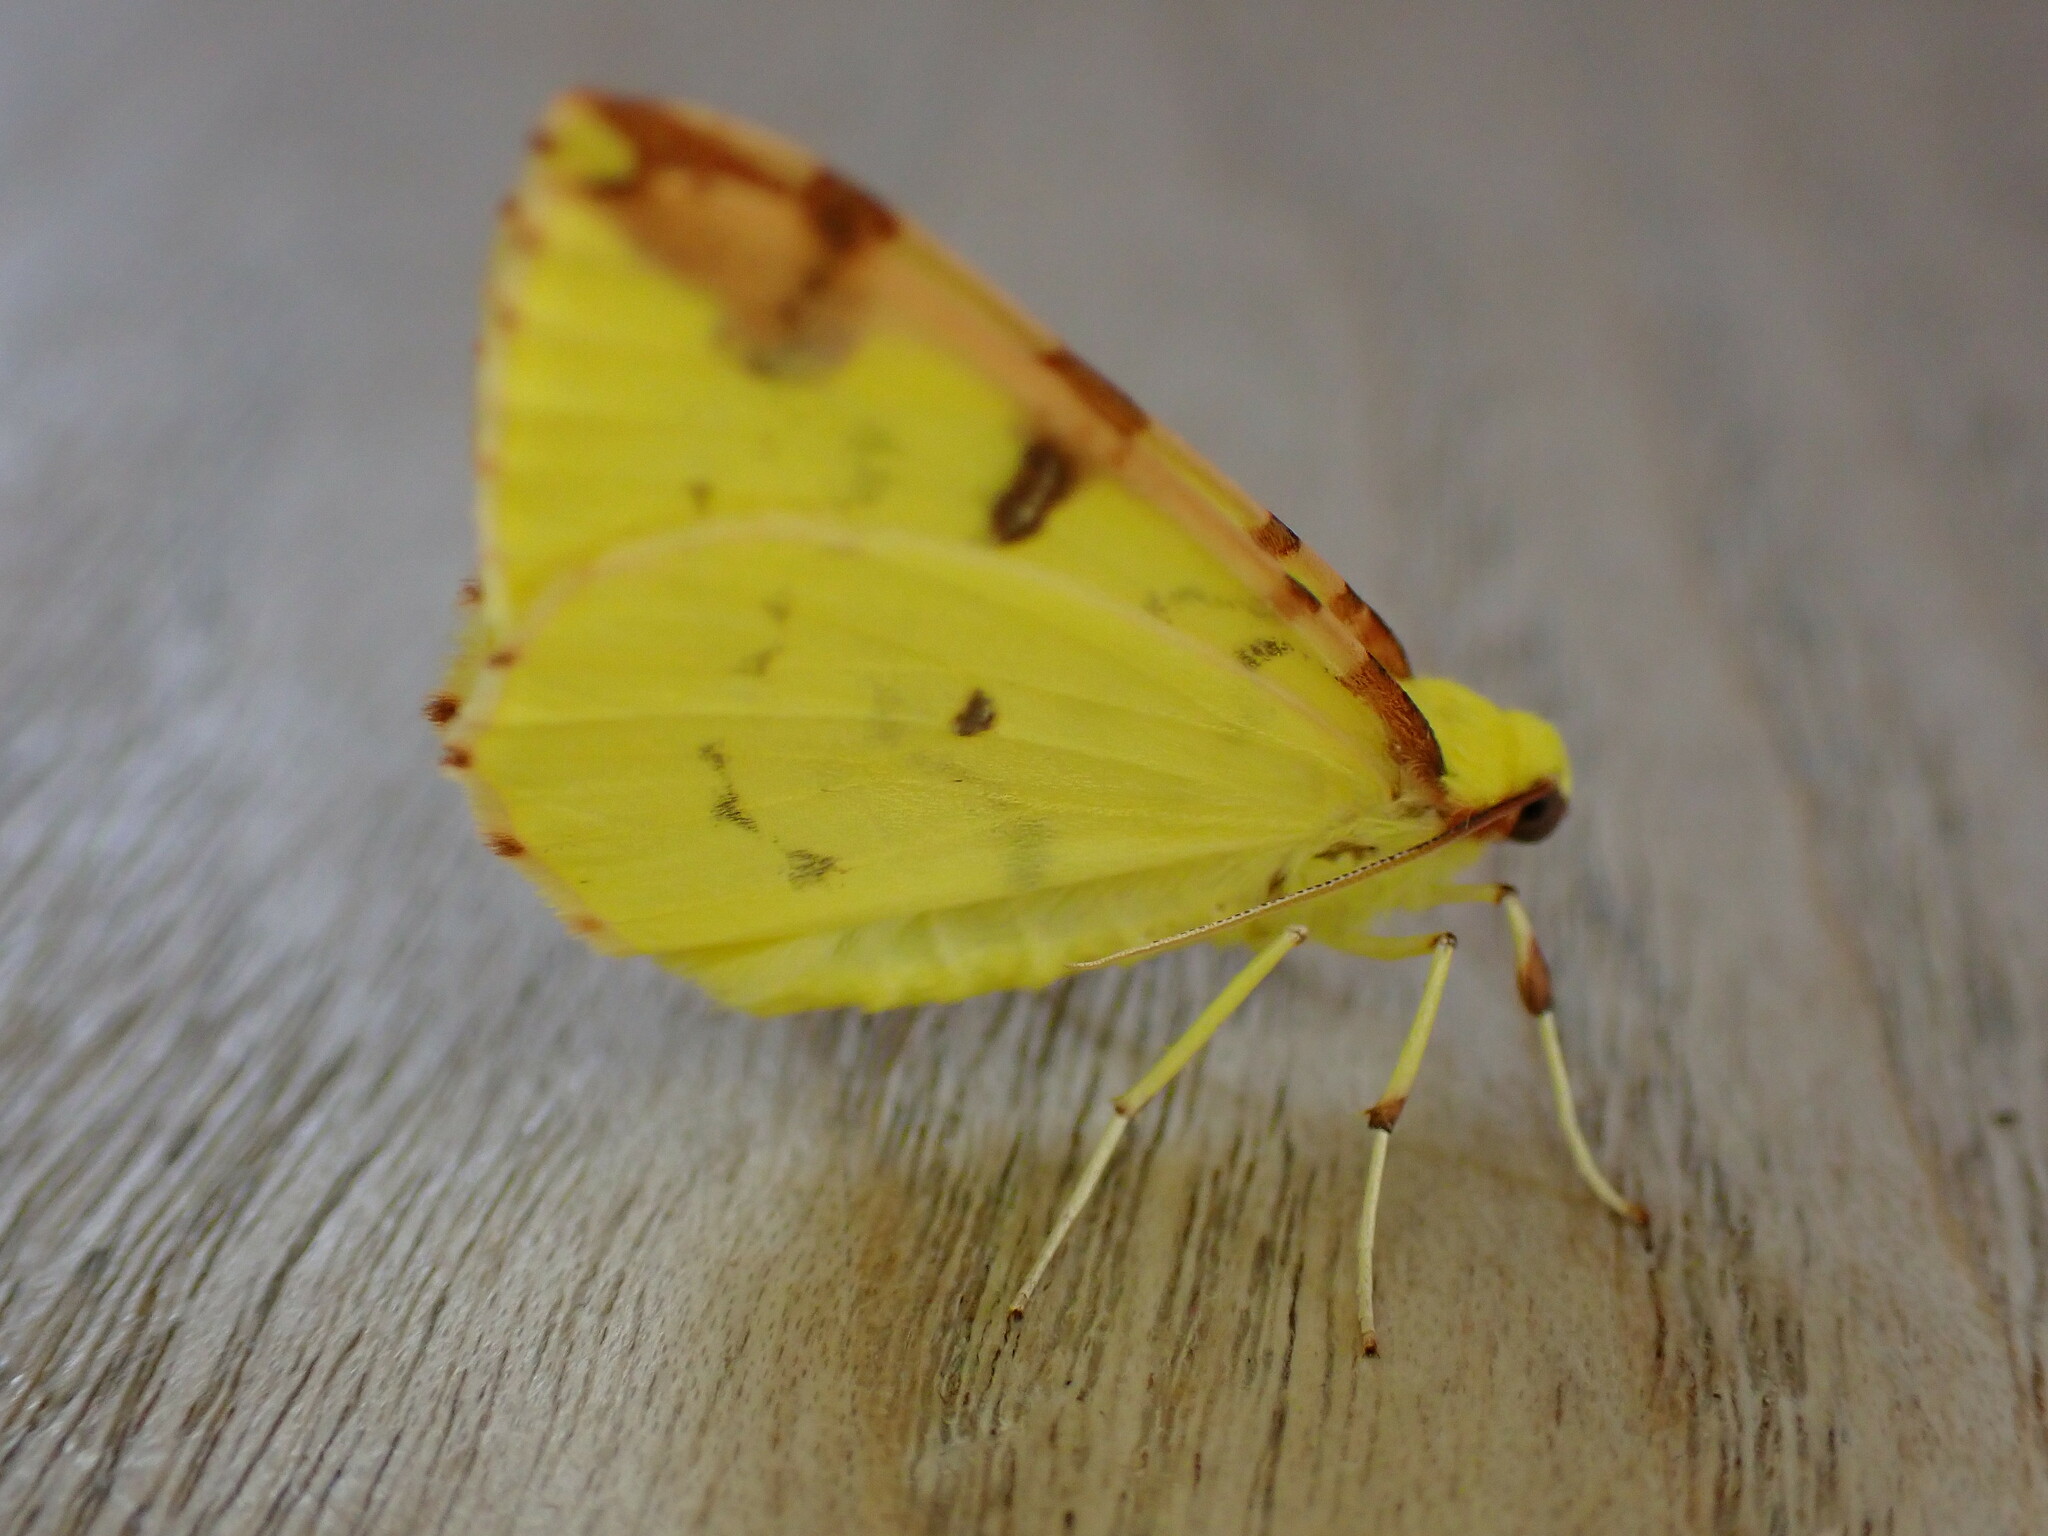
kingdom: Animalia
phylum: Arthropoda
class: Insecta
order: Lepidoptera
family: Geometridae
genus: Opisthograptis
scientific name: Opisthograptis luteolata
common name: Brimstone moth
